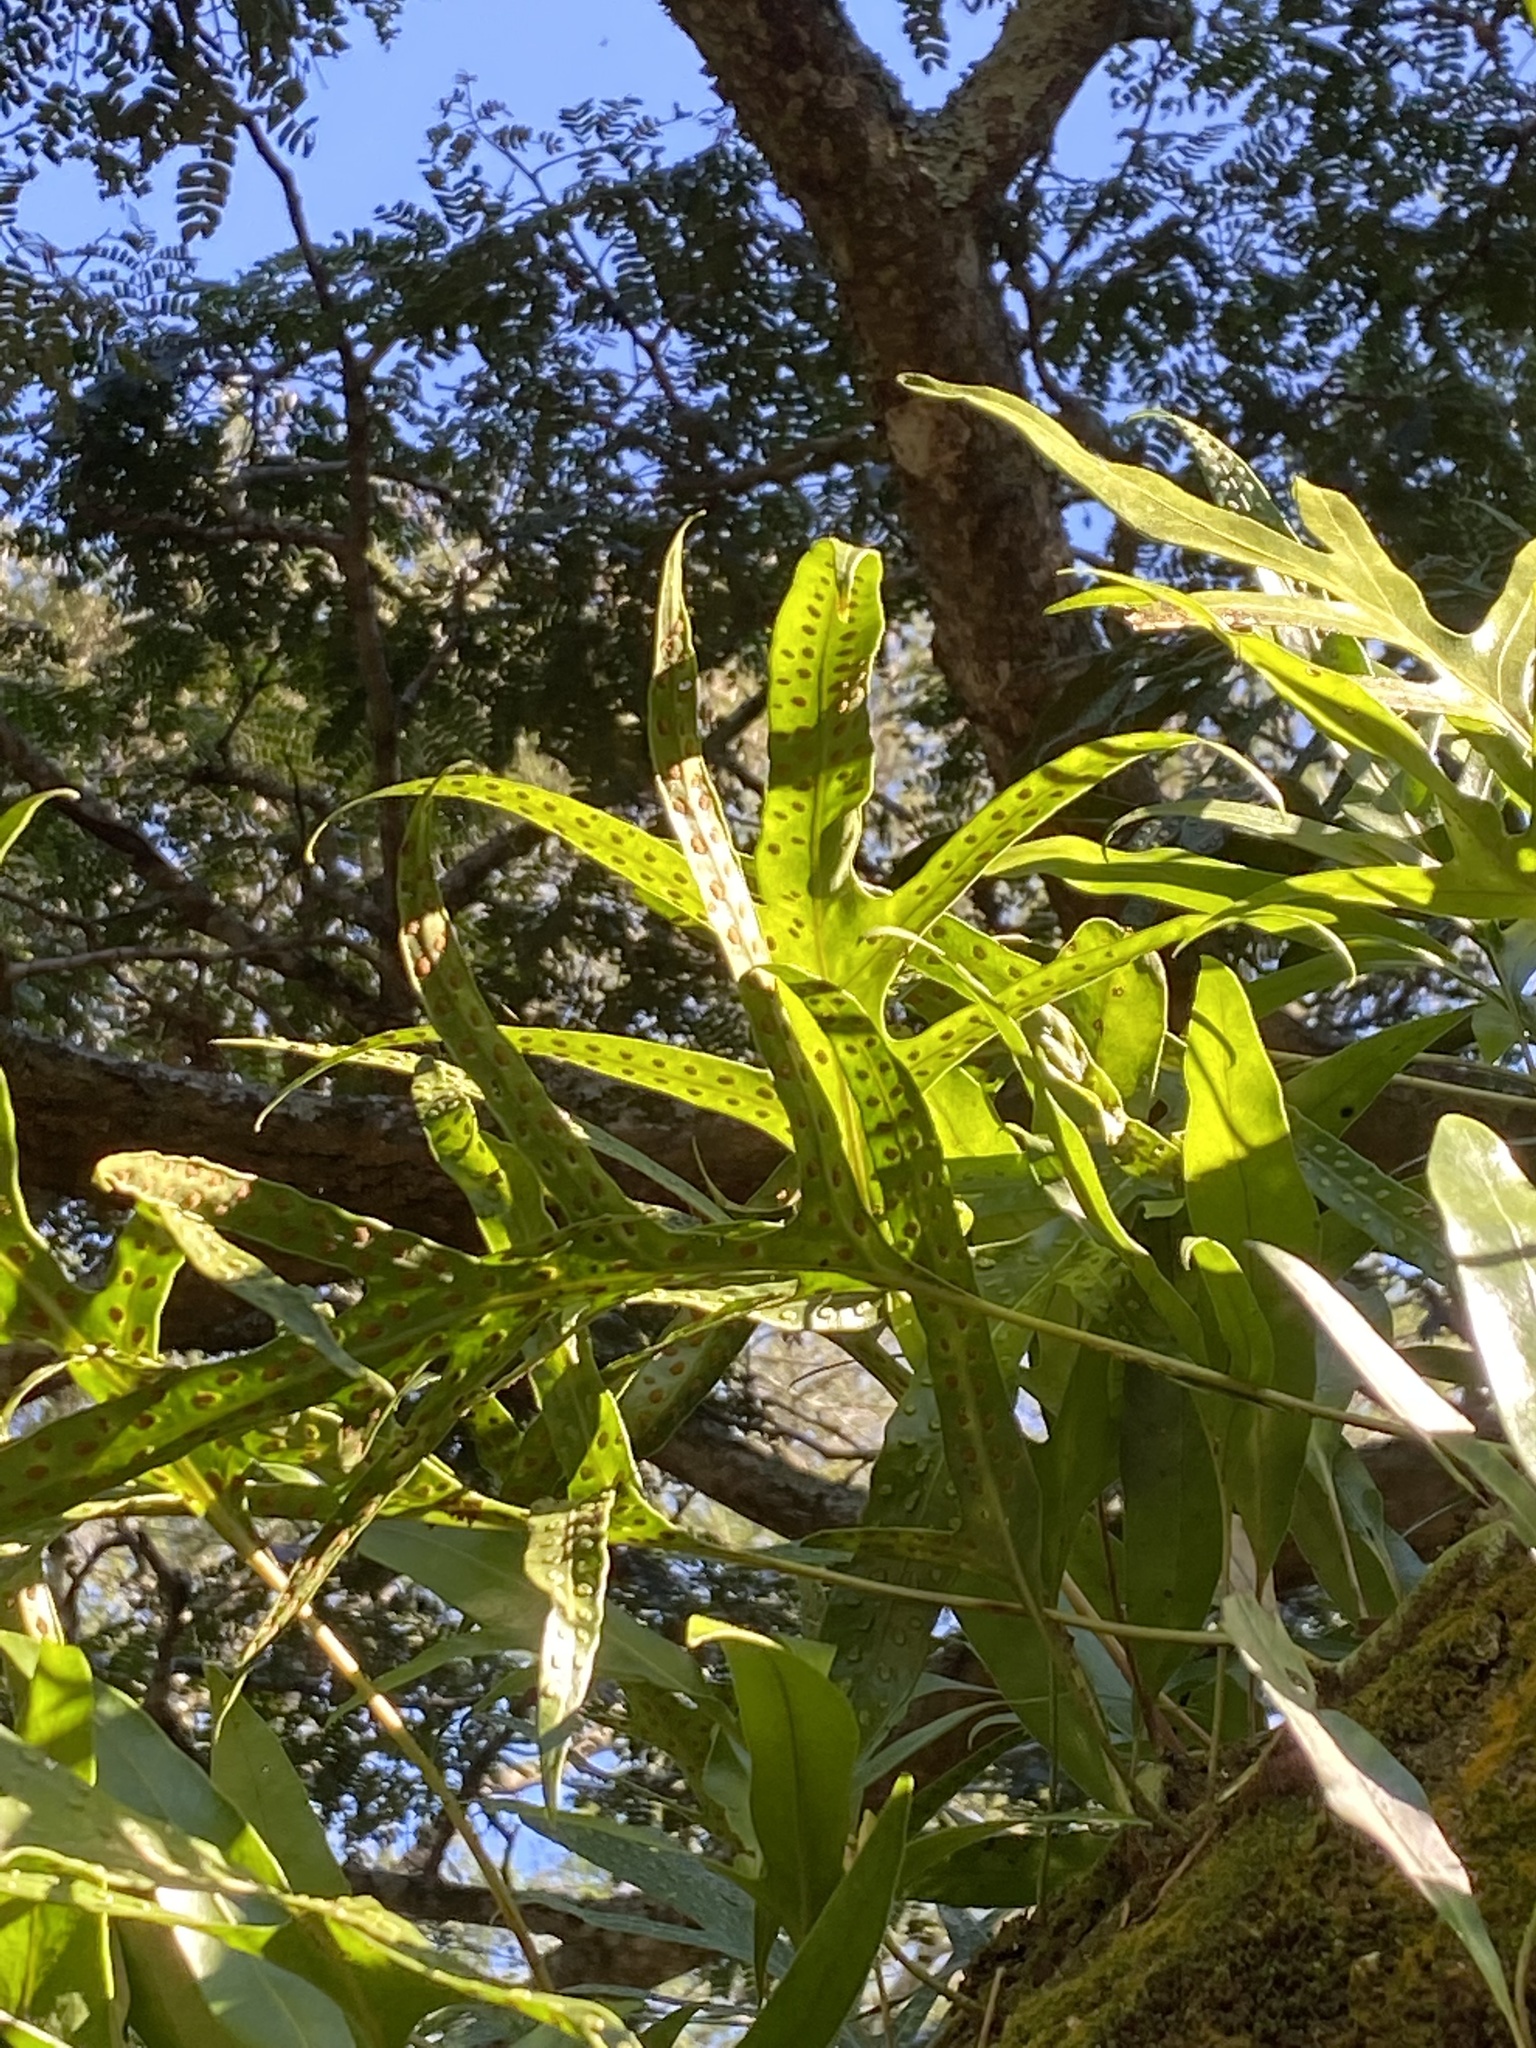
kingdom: Plantae
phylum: Tracheophyta
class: Polypodiopsida
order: Polypodiales
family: Polypodiaceae
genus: Microsorum
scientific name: Microsorum scolopendria
